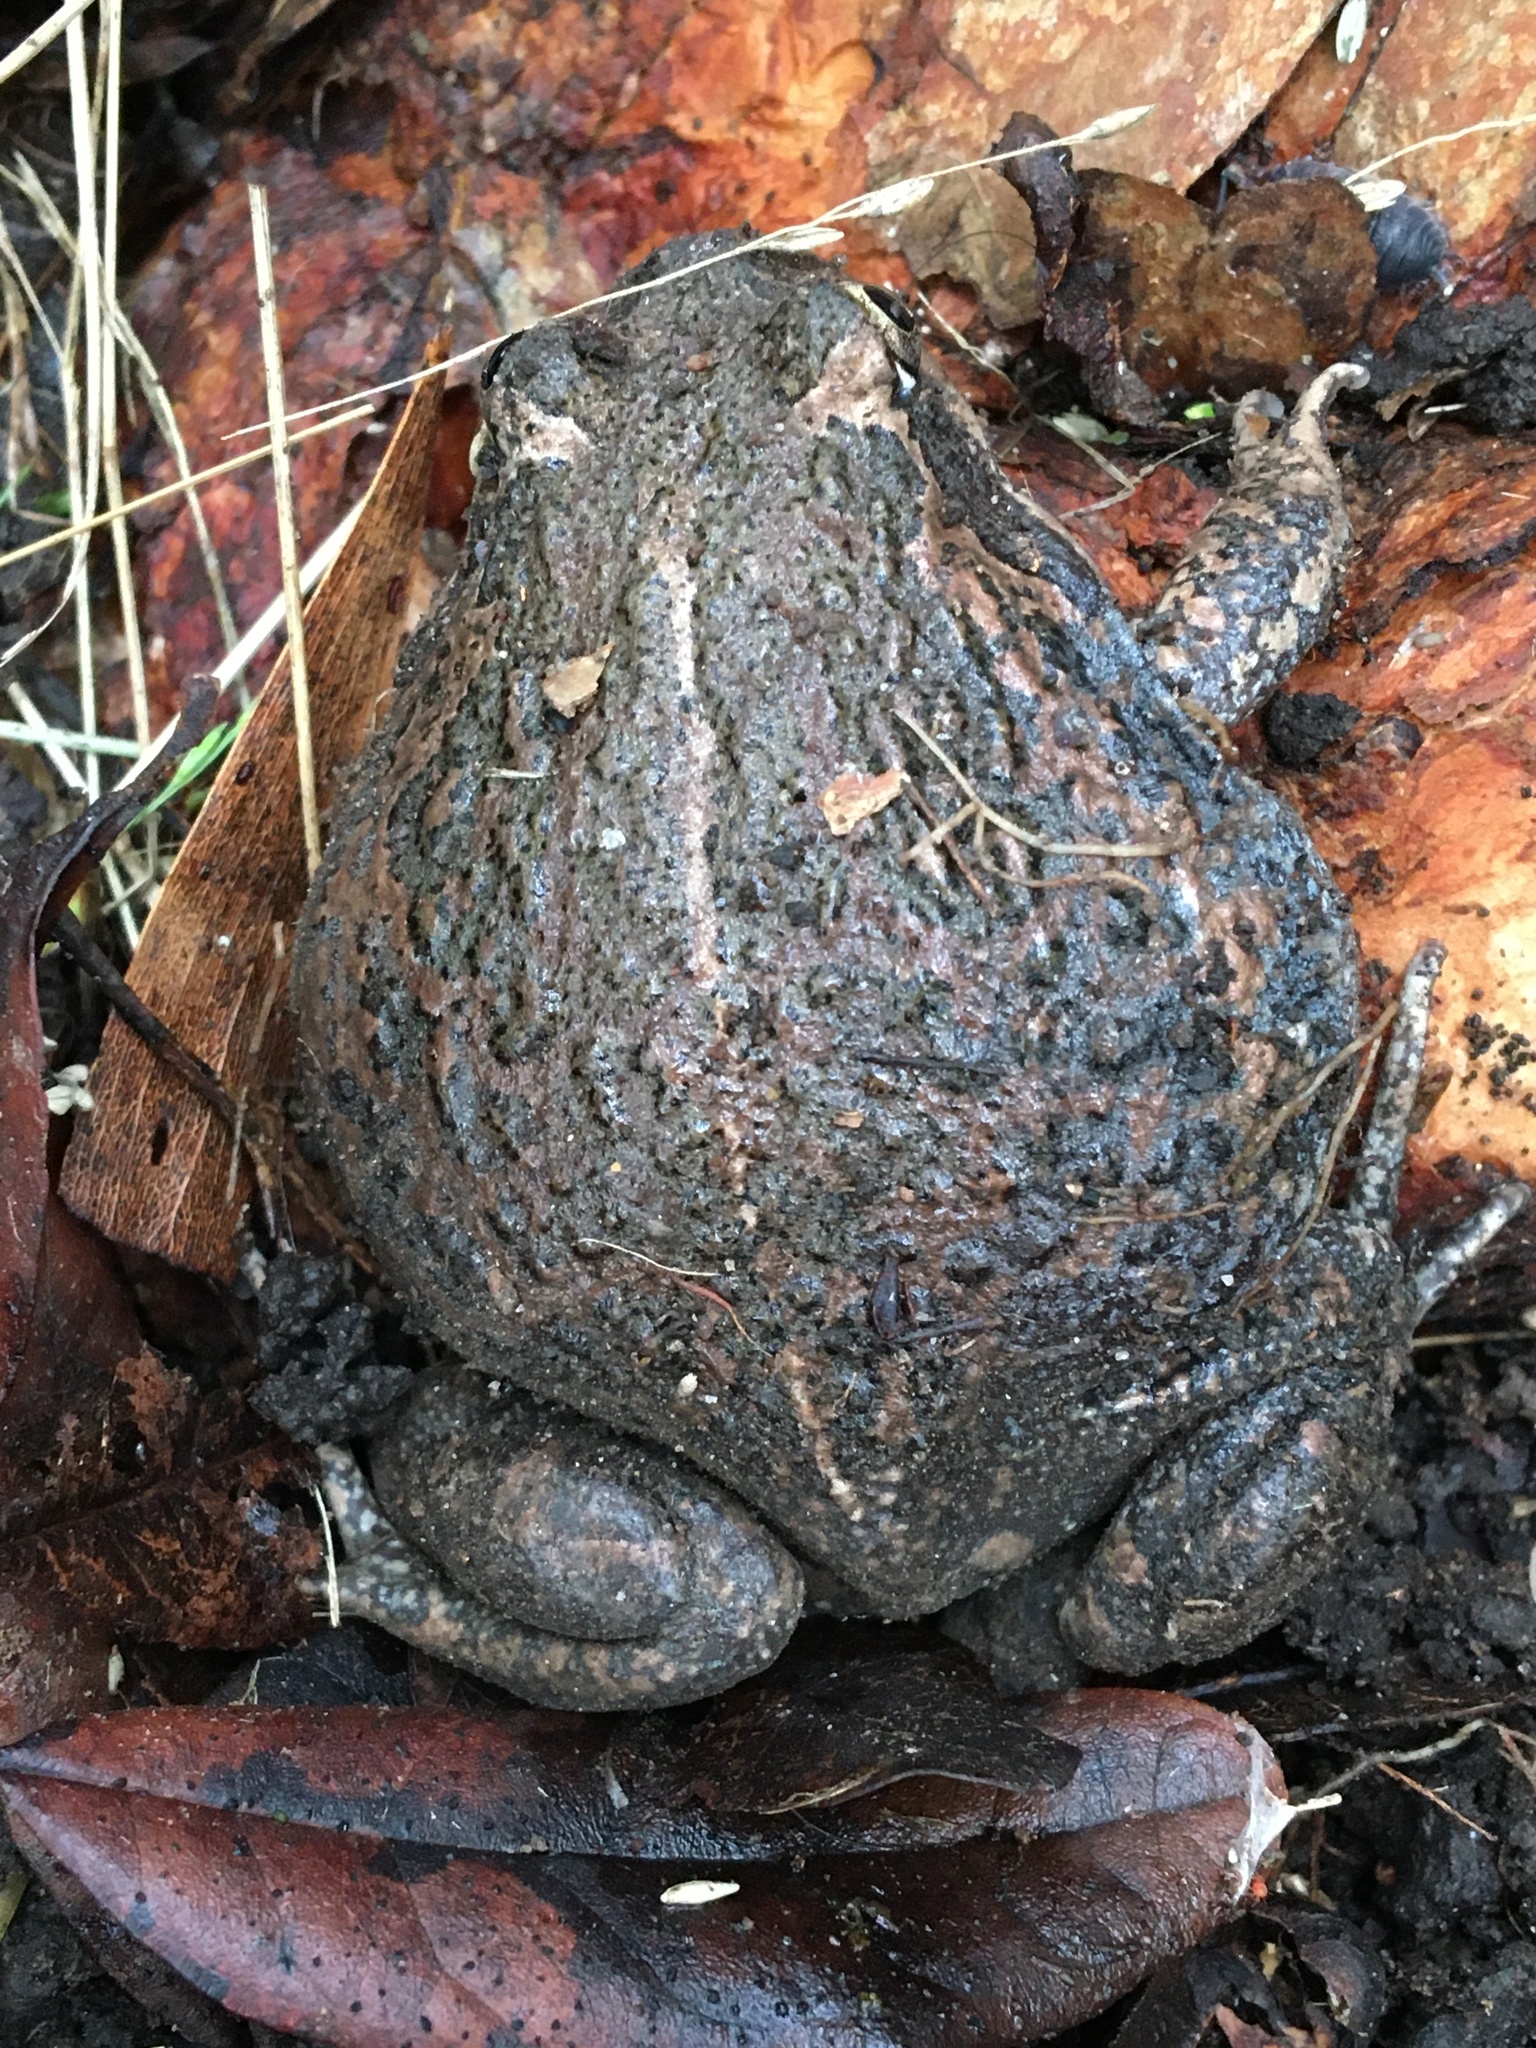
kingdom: Animalia
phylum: Chordata
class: Amphibia
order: Anura
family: Limnodynastidae
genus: Limnodynastes
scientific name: Limnodynastes dumerilii
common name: Banjo frog
